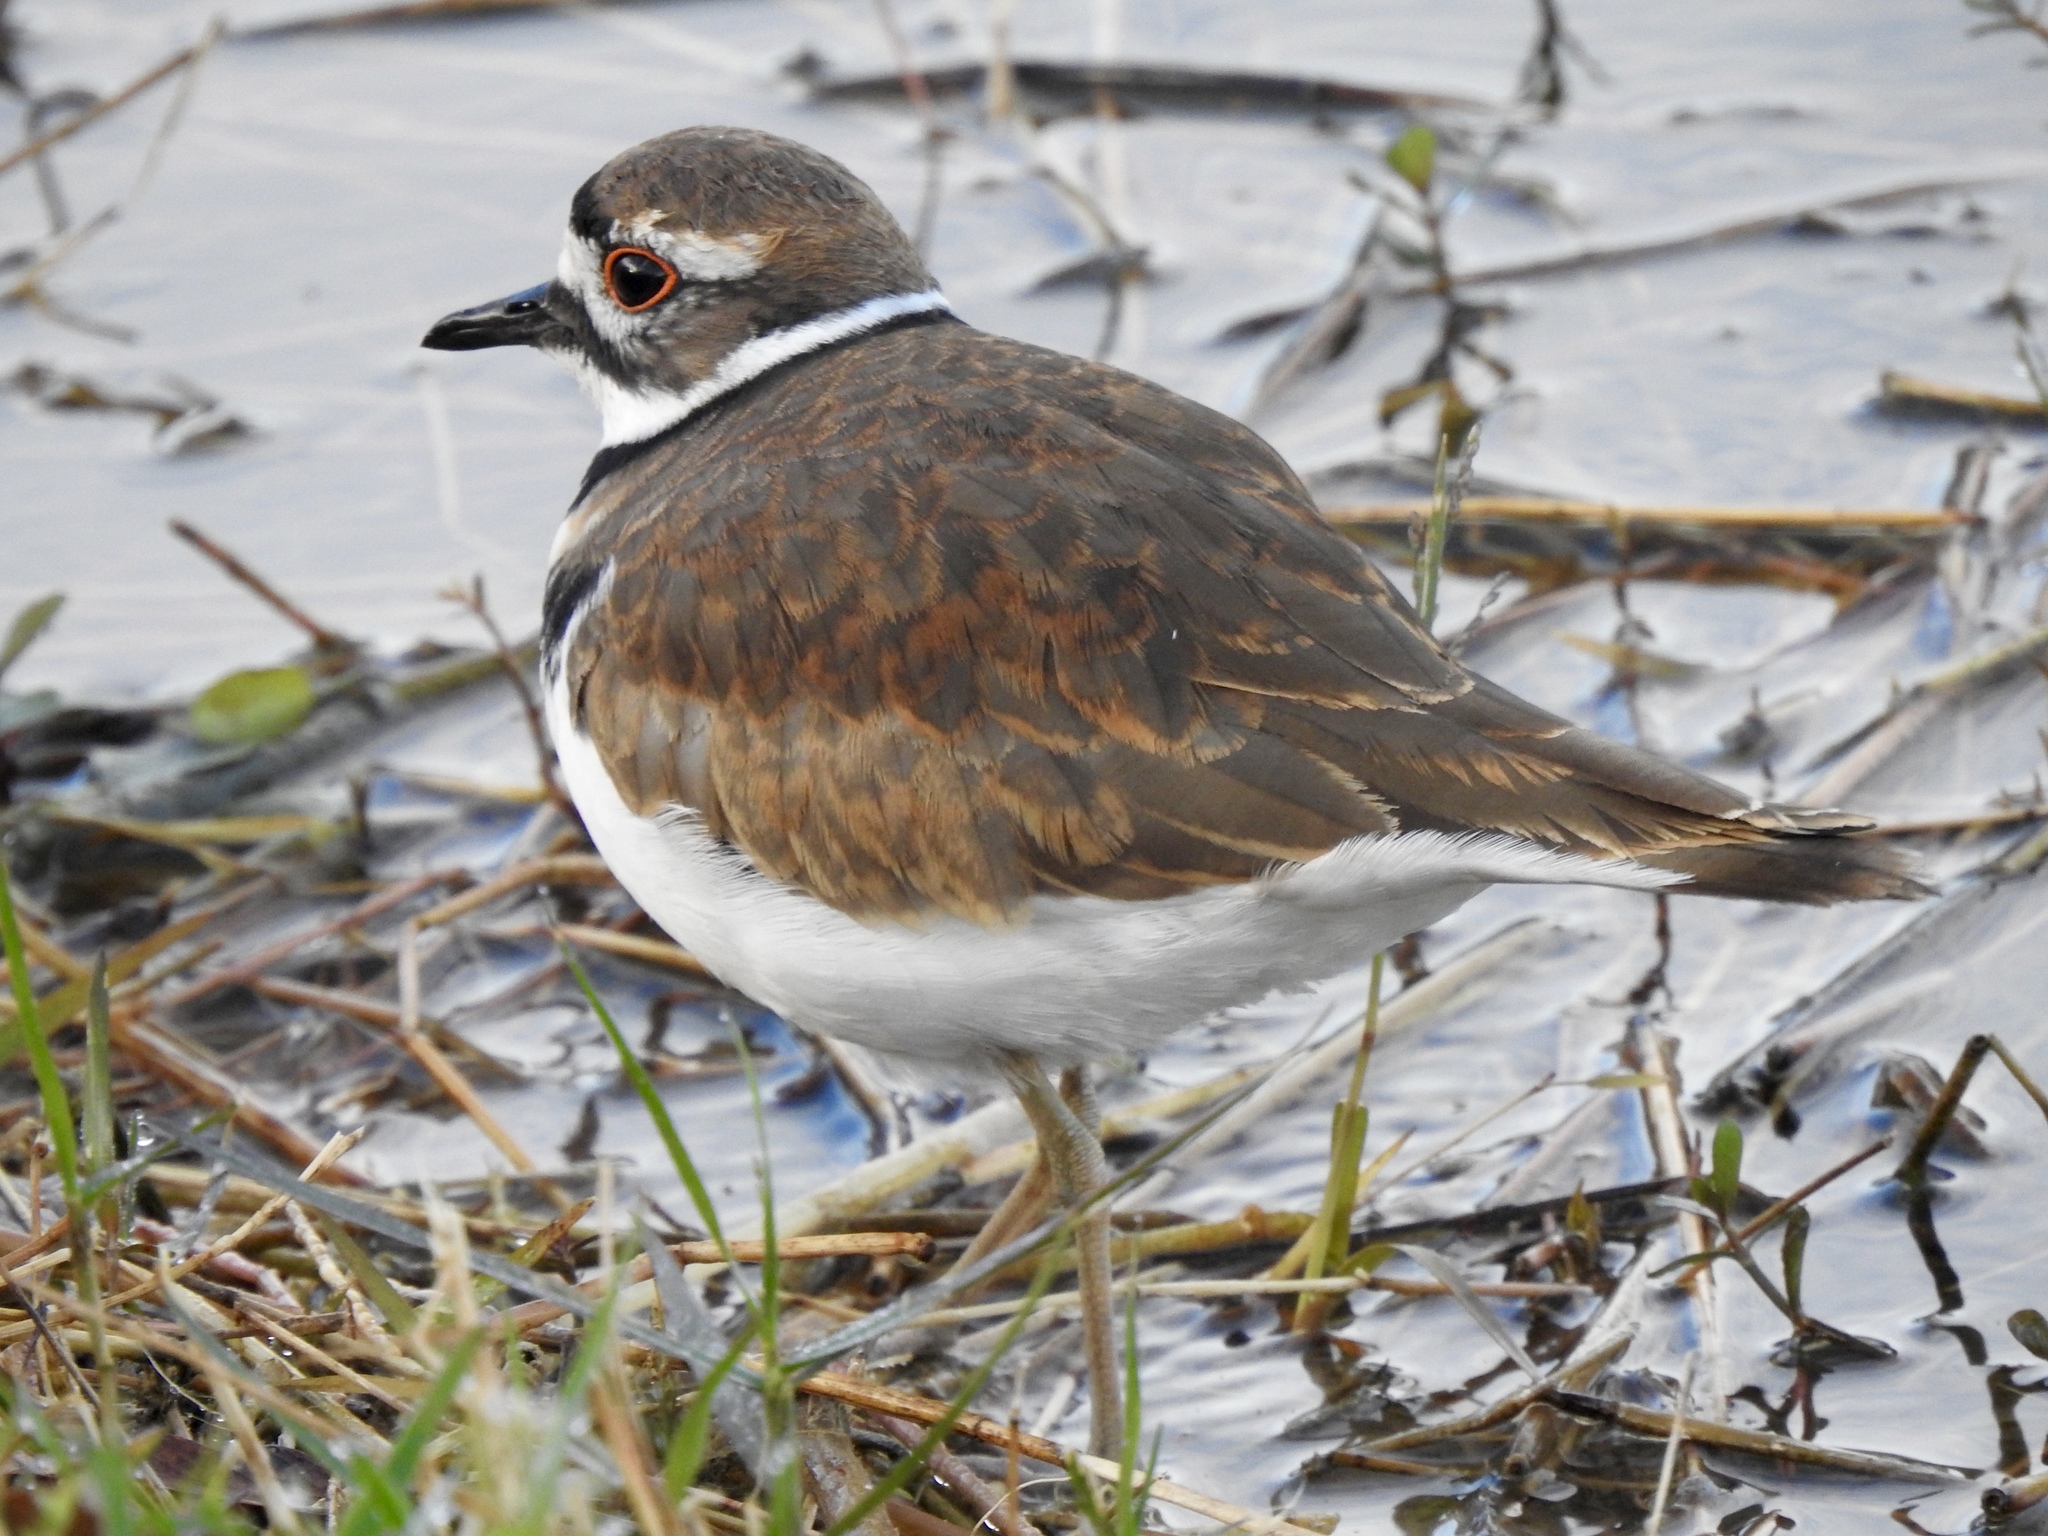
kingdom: Animalia
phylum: Chordata
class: Aves
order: Charadriiformes
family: Charadriidae
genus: Charadrius
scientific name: Charadrius vociferus
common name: Killdeer
